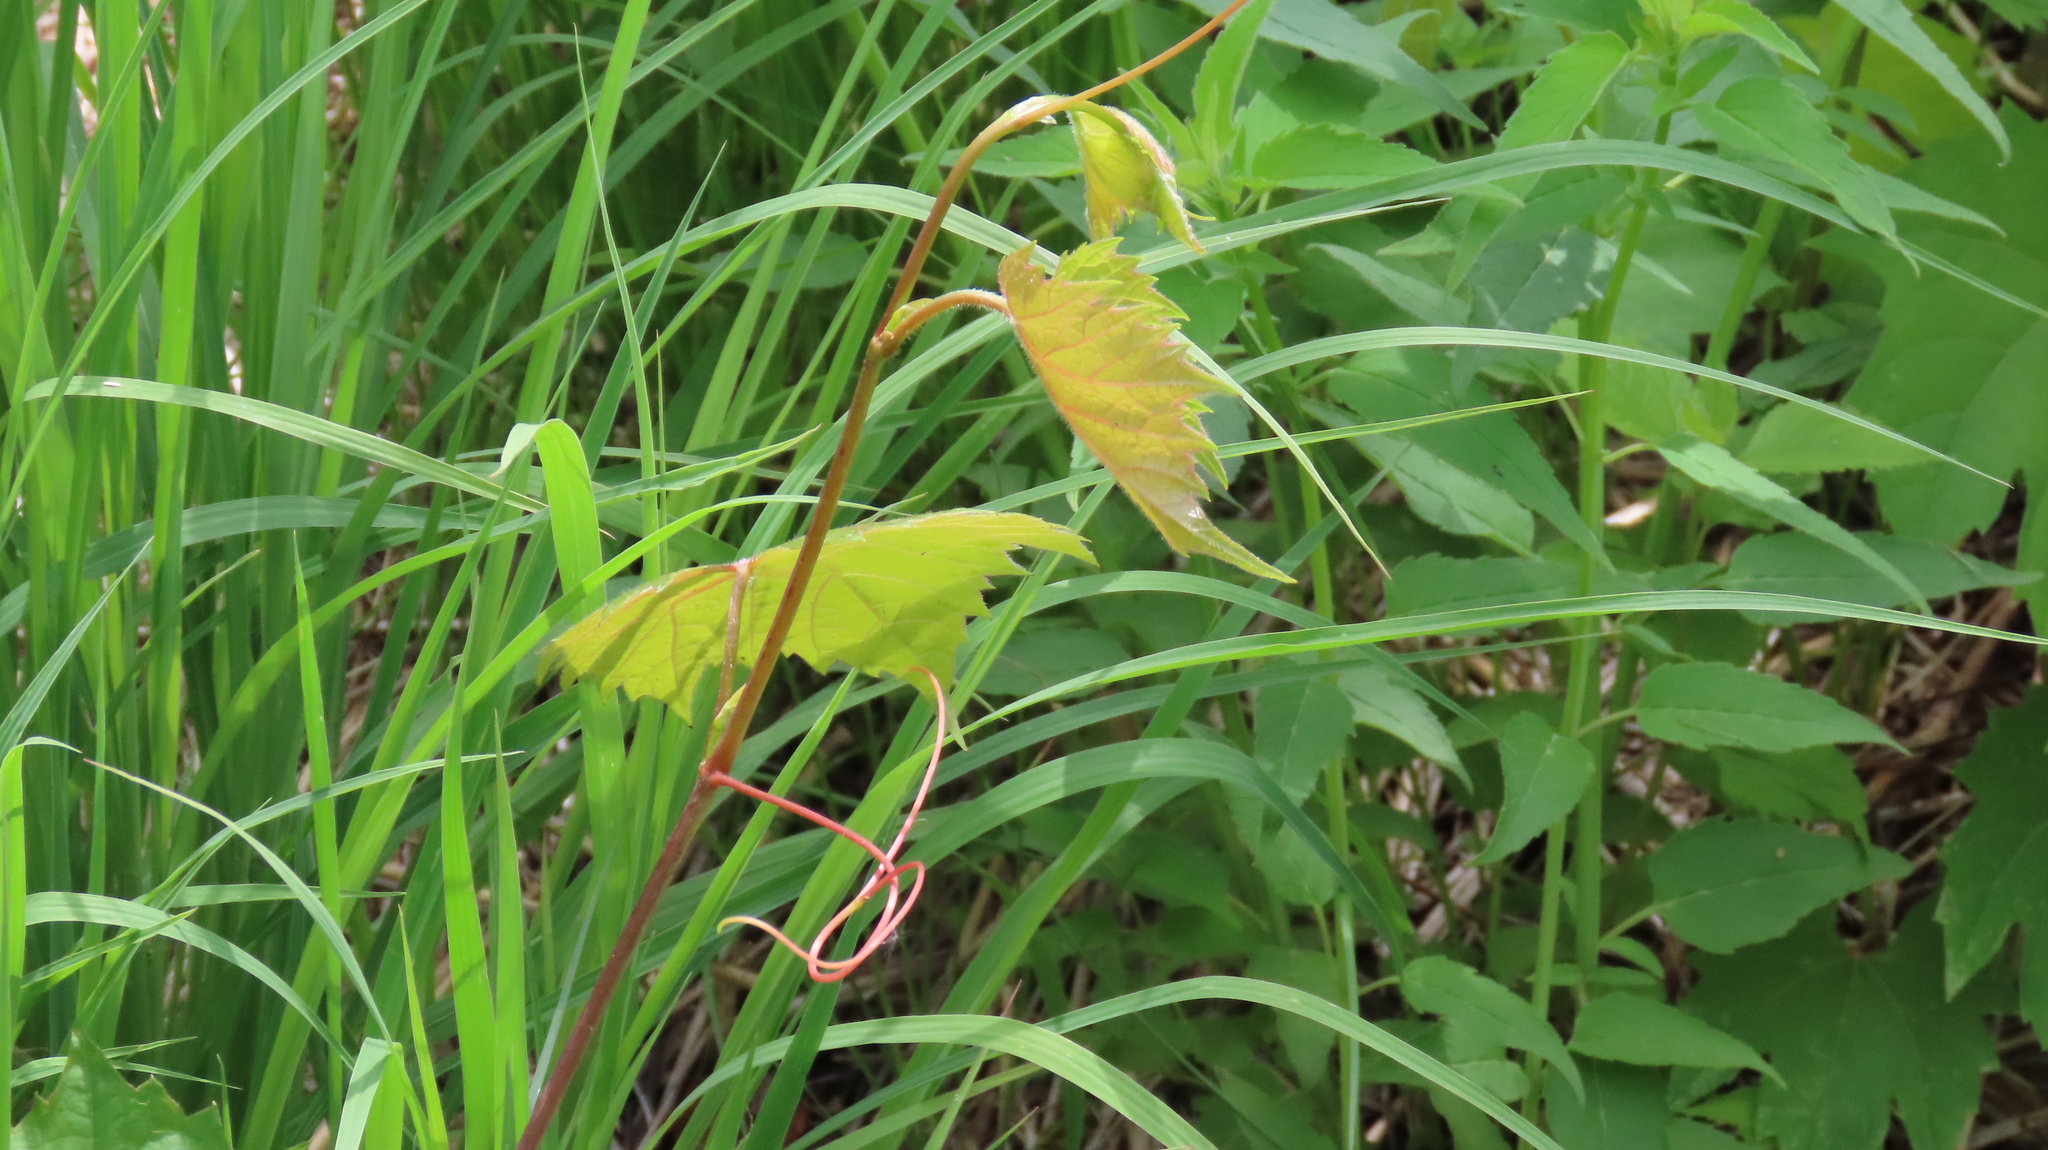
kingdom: Plantae
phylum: Tracheophyta
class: Magnoliopsida
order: Vitales
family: Vitaceae
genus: Vitis
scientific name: Vitis riparia
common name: Frost grape
